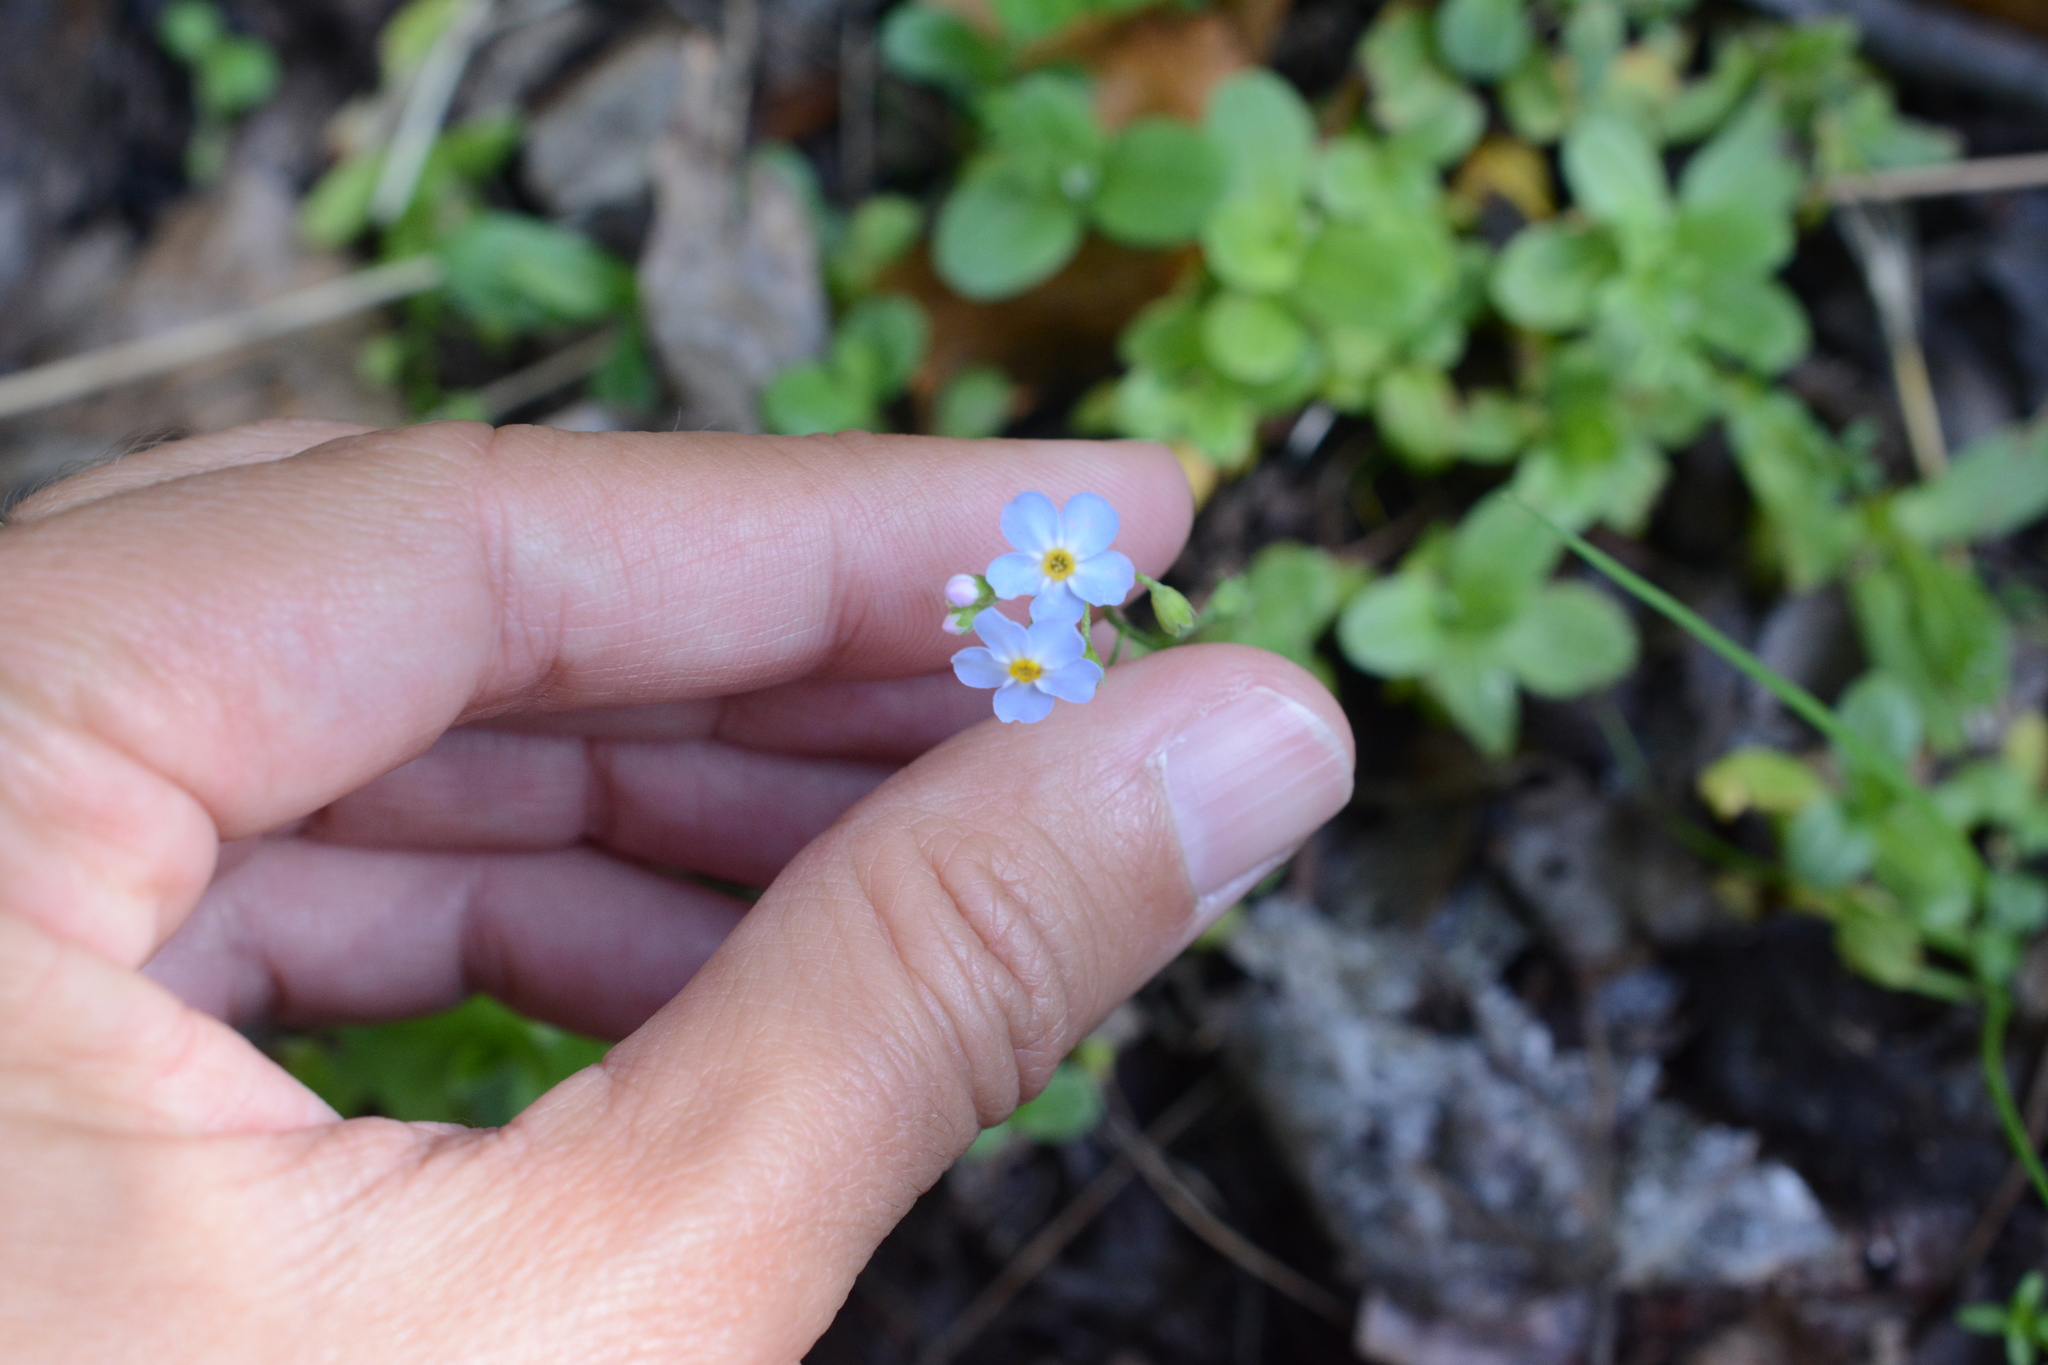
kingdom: Plantae
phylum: Tracheophyta
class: Magnoliopsida
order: Boraginales
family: Boraginaceae
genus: Myosotis
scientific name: Myosotis scorpioides
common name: Water forget-me-not
